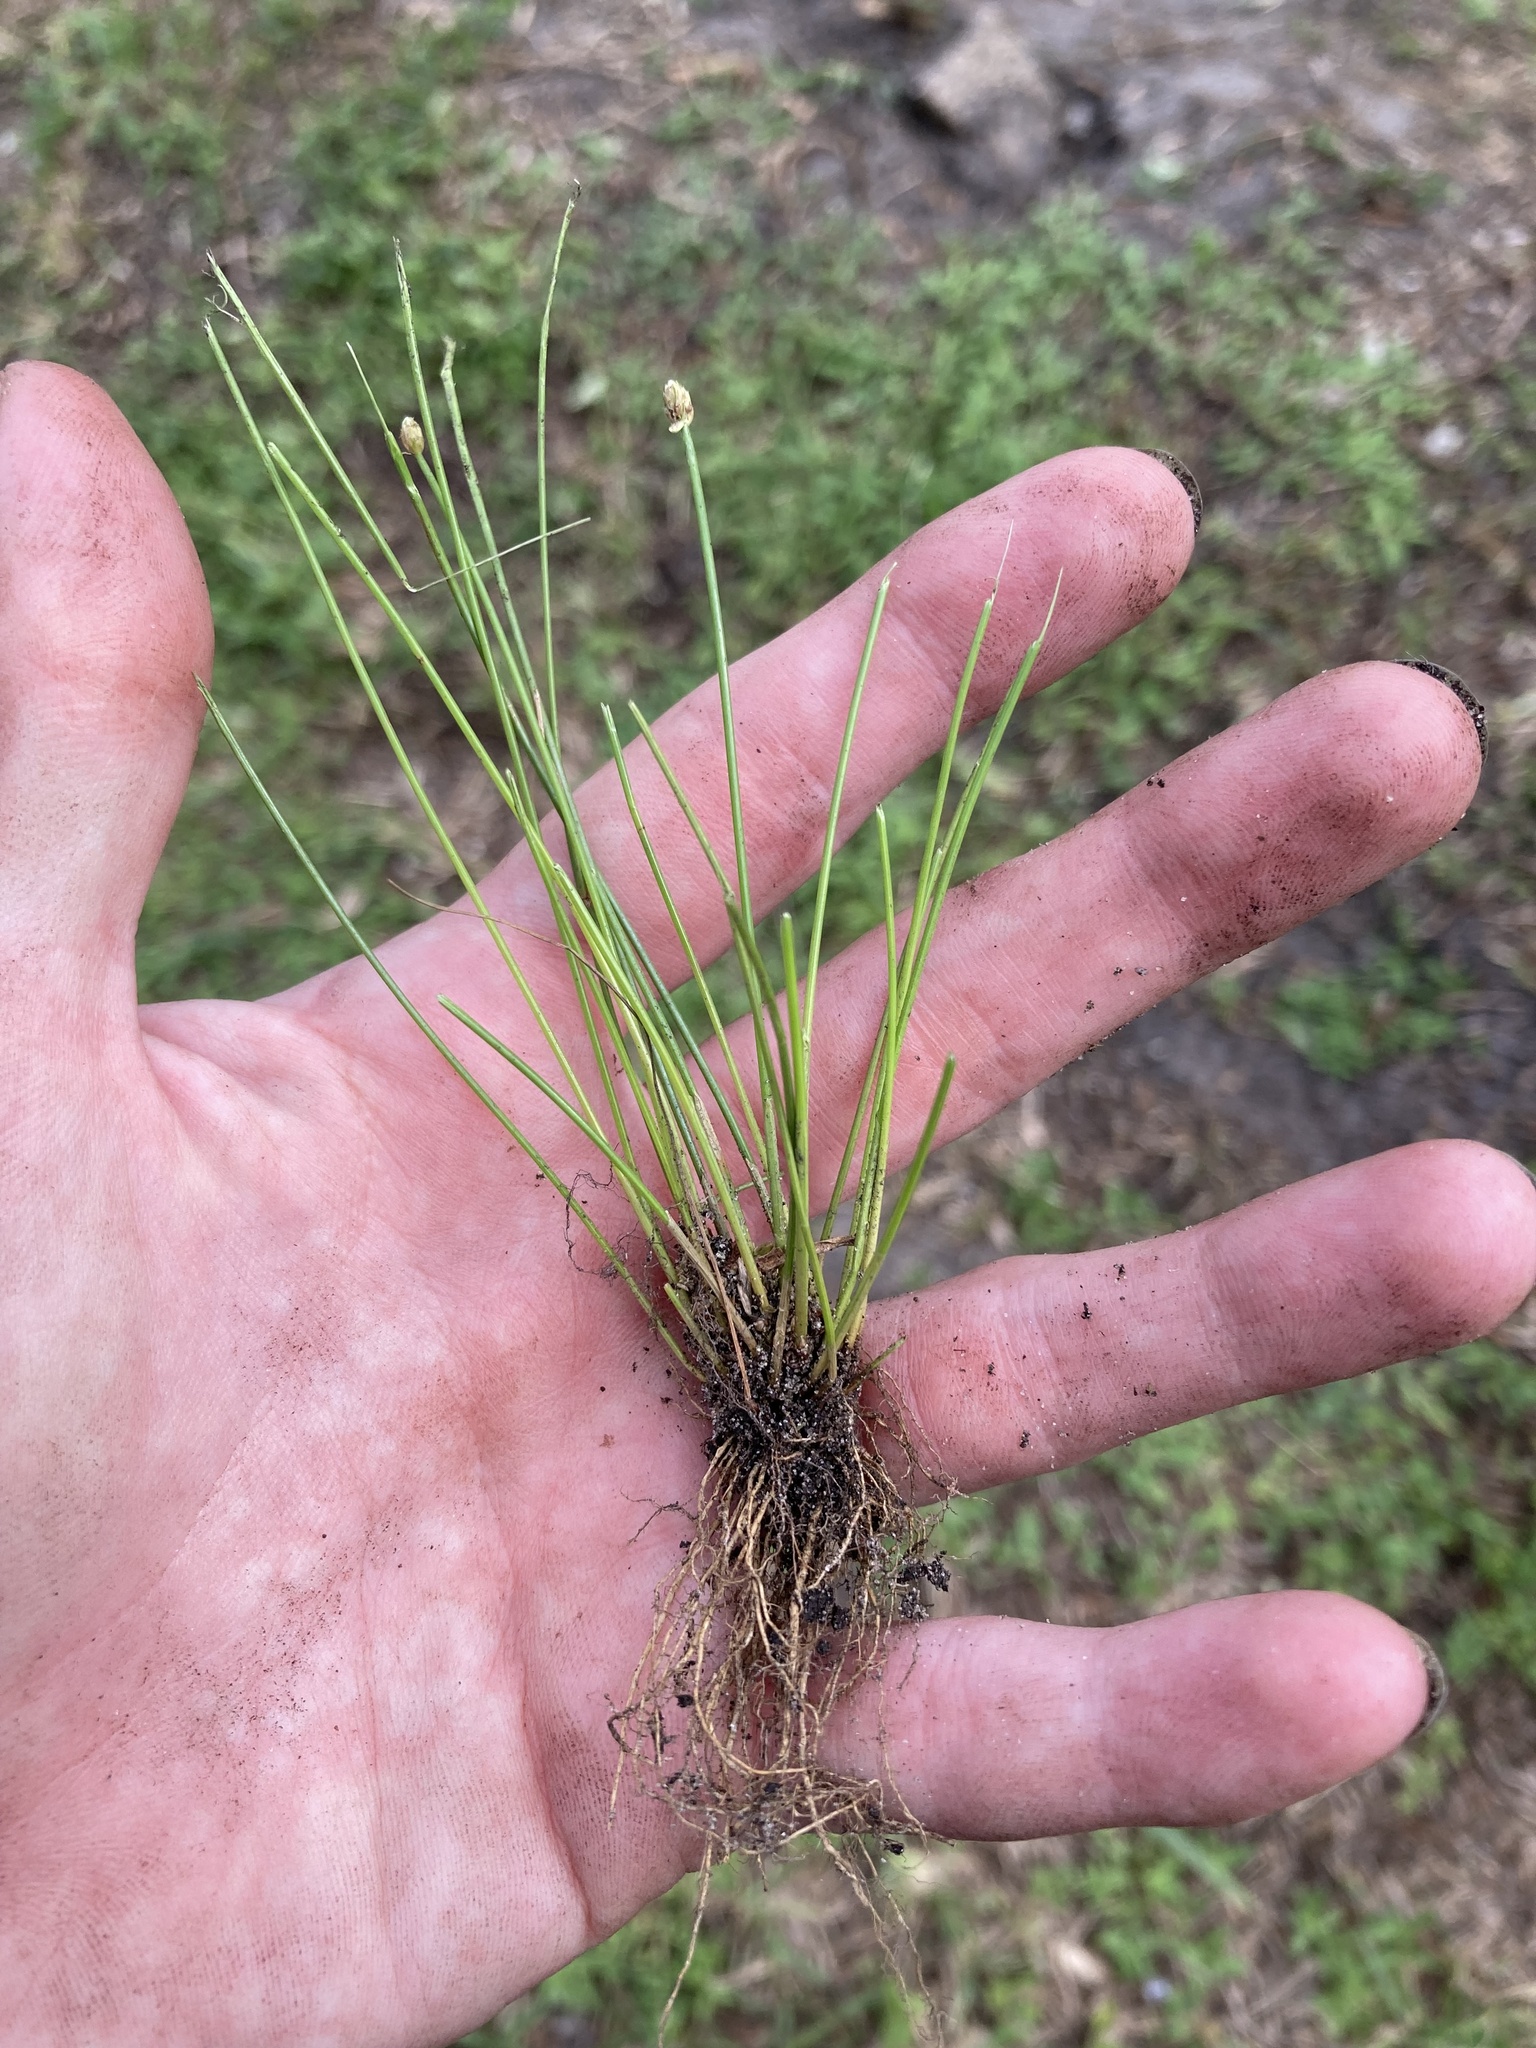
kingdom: Plantae
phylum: Tracheophyta
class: Liliopsida
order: Poales
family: Cyperaceae
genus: Eleocharis
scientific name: Eleocharis geniculata
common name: Canada spikesedge
